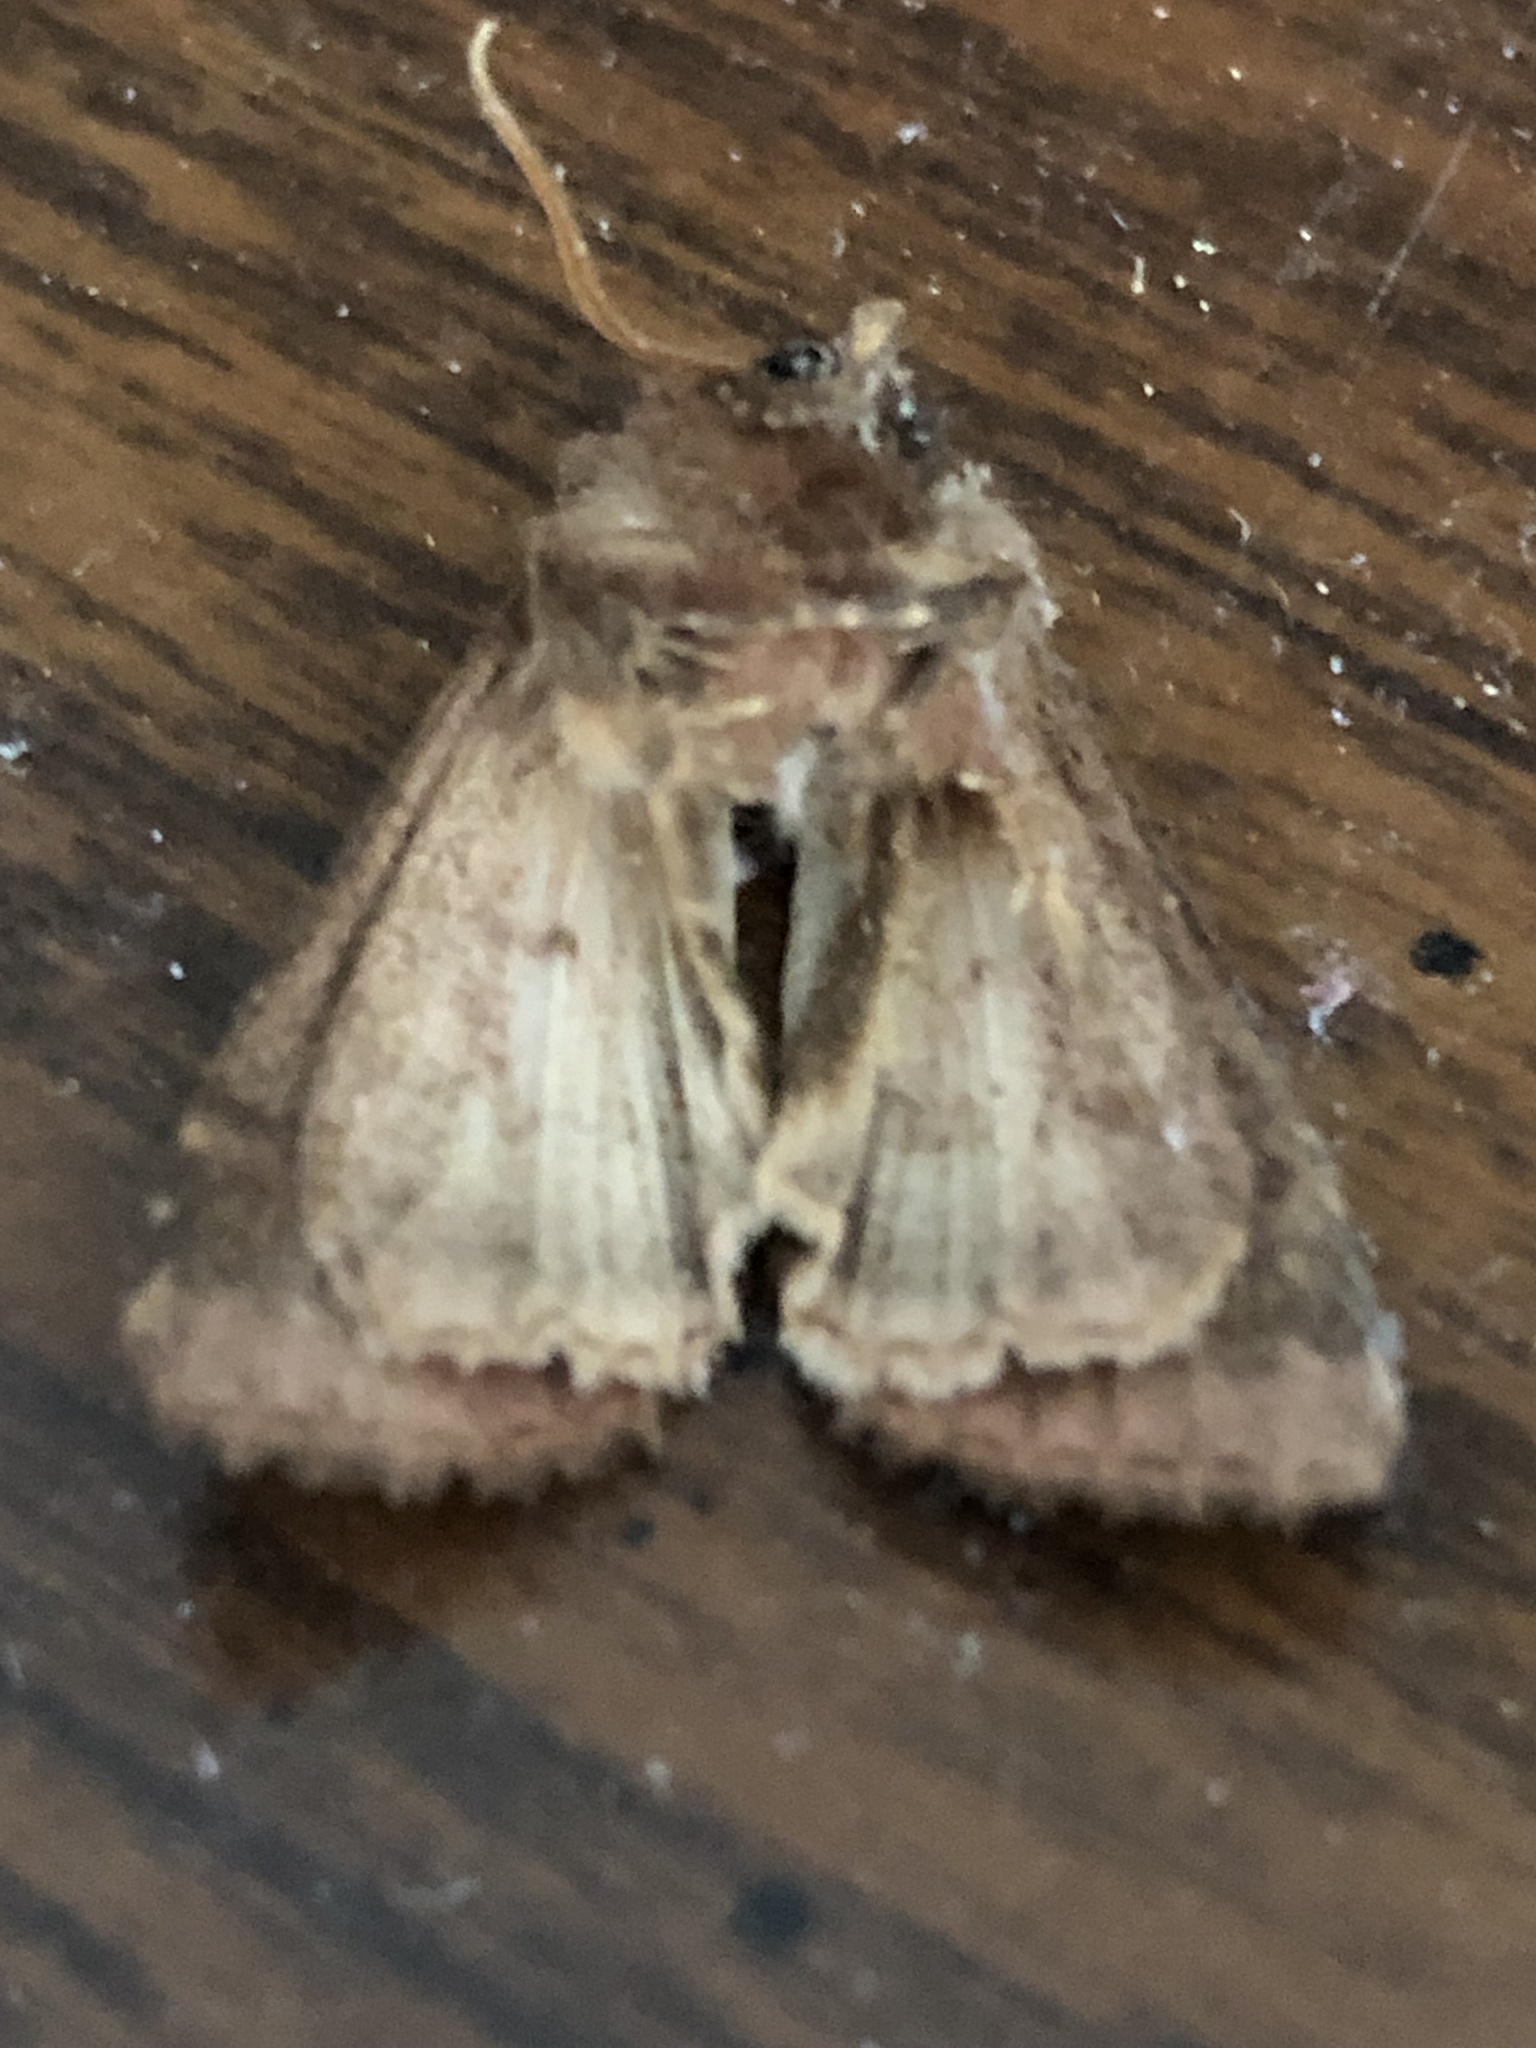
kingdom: Animalia
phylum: Arthropoda
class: Insecta
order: Lepidoptera
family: Noctuidae
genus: Nephelodes
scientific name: Nephelodes minians
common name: Bronzed cutworm
